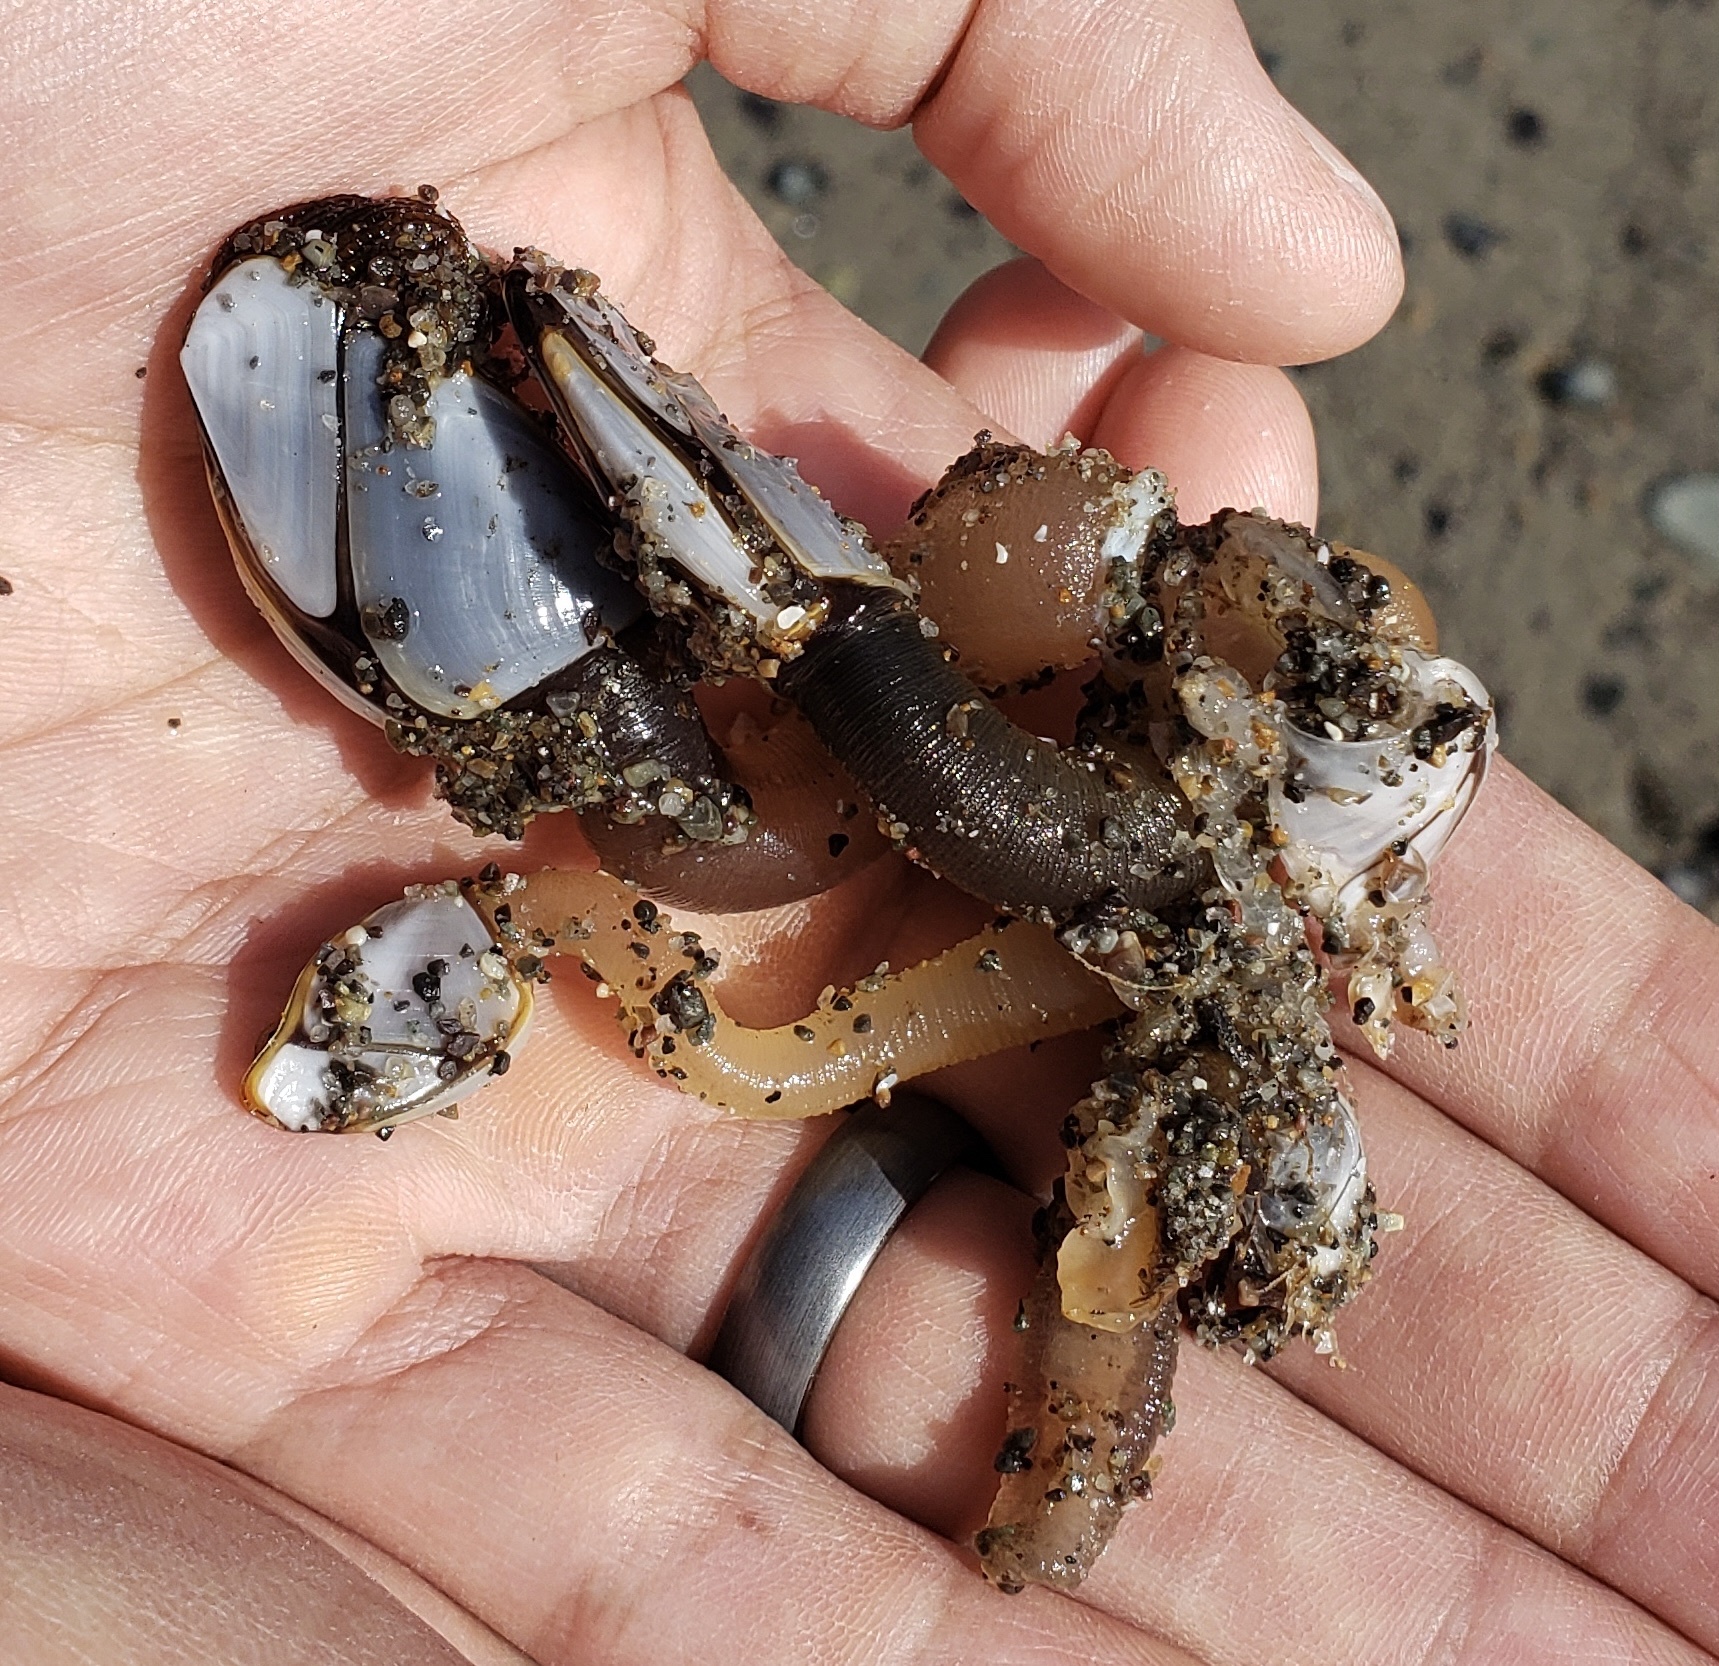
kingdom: Animalia
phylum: Arthropoda
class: Maxillopoda
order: Pedunculata
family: Lepadidae
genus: Lepas
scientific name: Lepas pacifica
